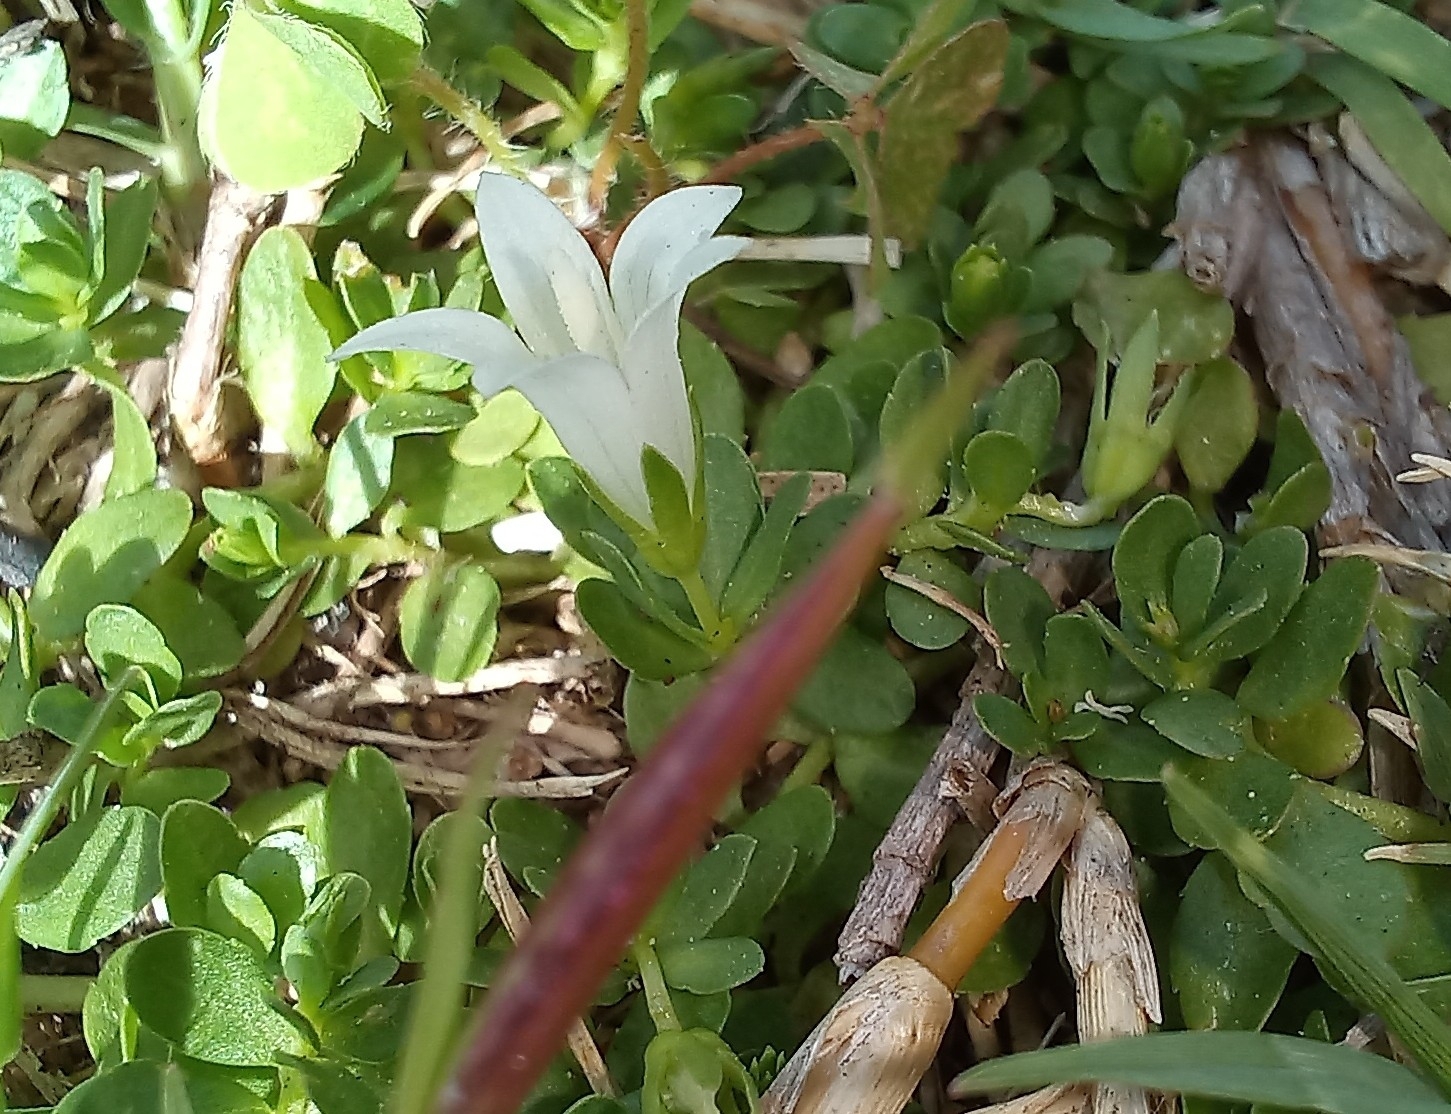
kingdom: Plantae
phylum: Tracheophyta
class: Magnoliopsida
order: Asterales
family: Campanulaceae
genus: Wahlenbergia
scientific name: Wahlenbergia procumbens
